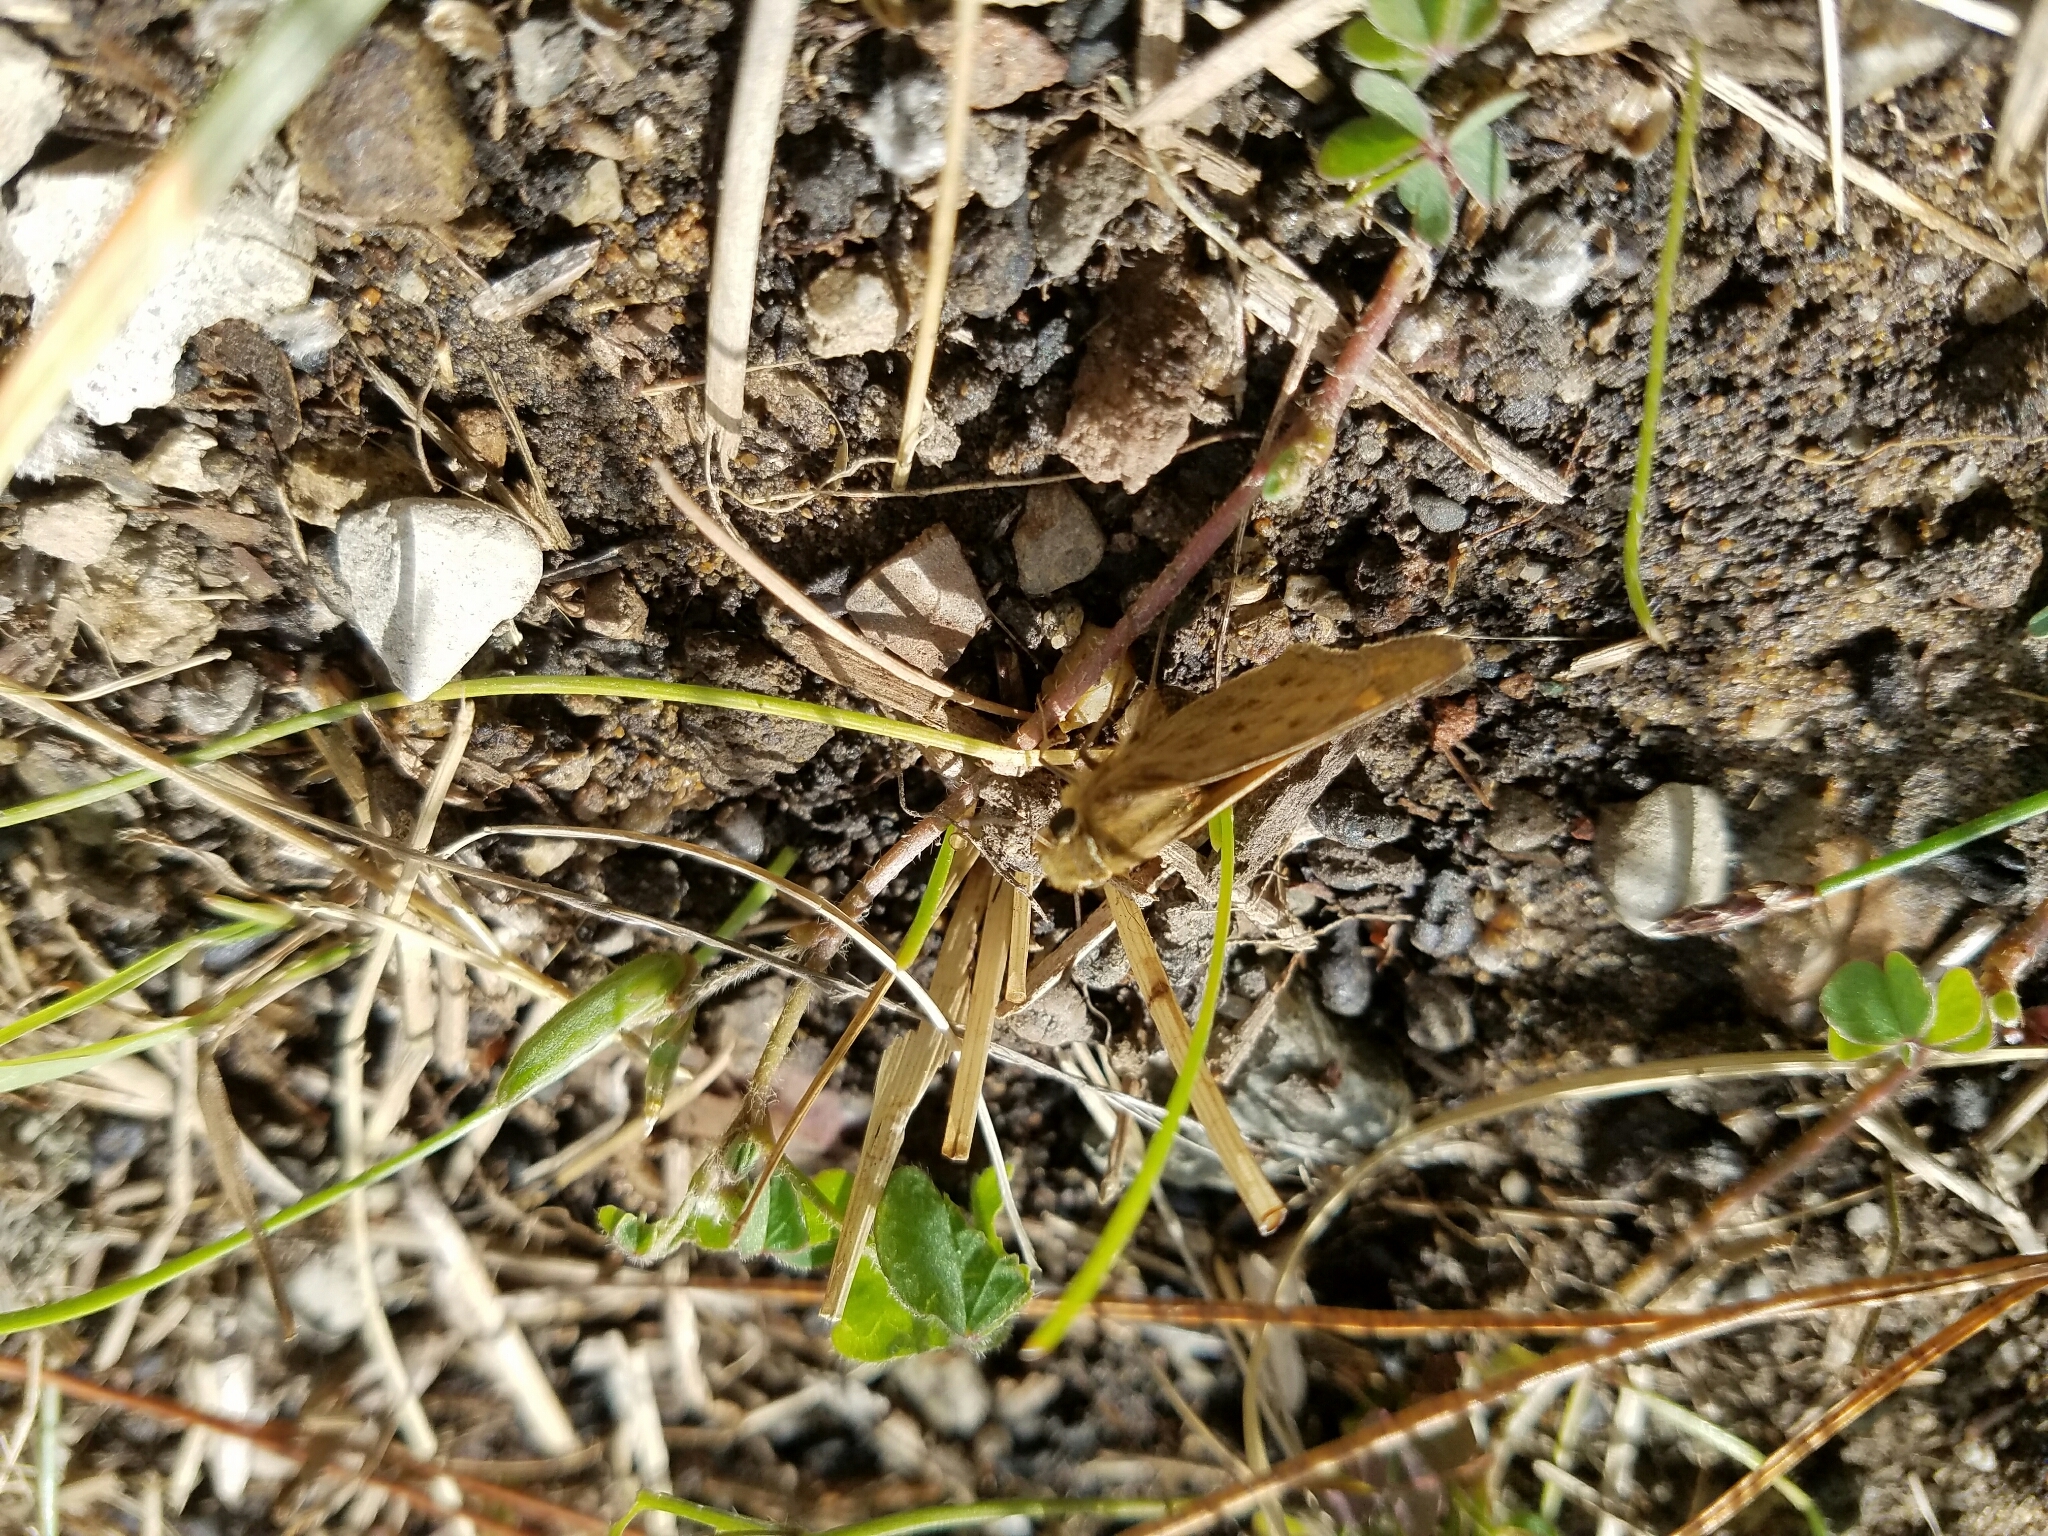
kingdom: Animalia
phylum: Arthropoda
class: Insecta
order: Lepidoptera
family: Hesperiidae
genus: Hylephila
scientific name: Hylephila phyleus
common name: Fiery skipper
